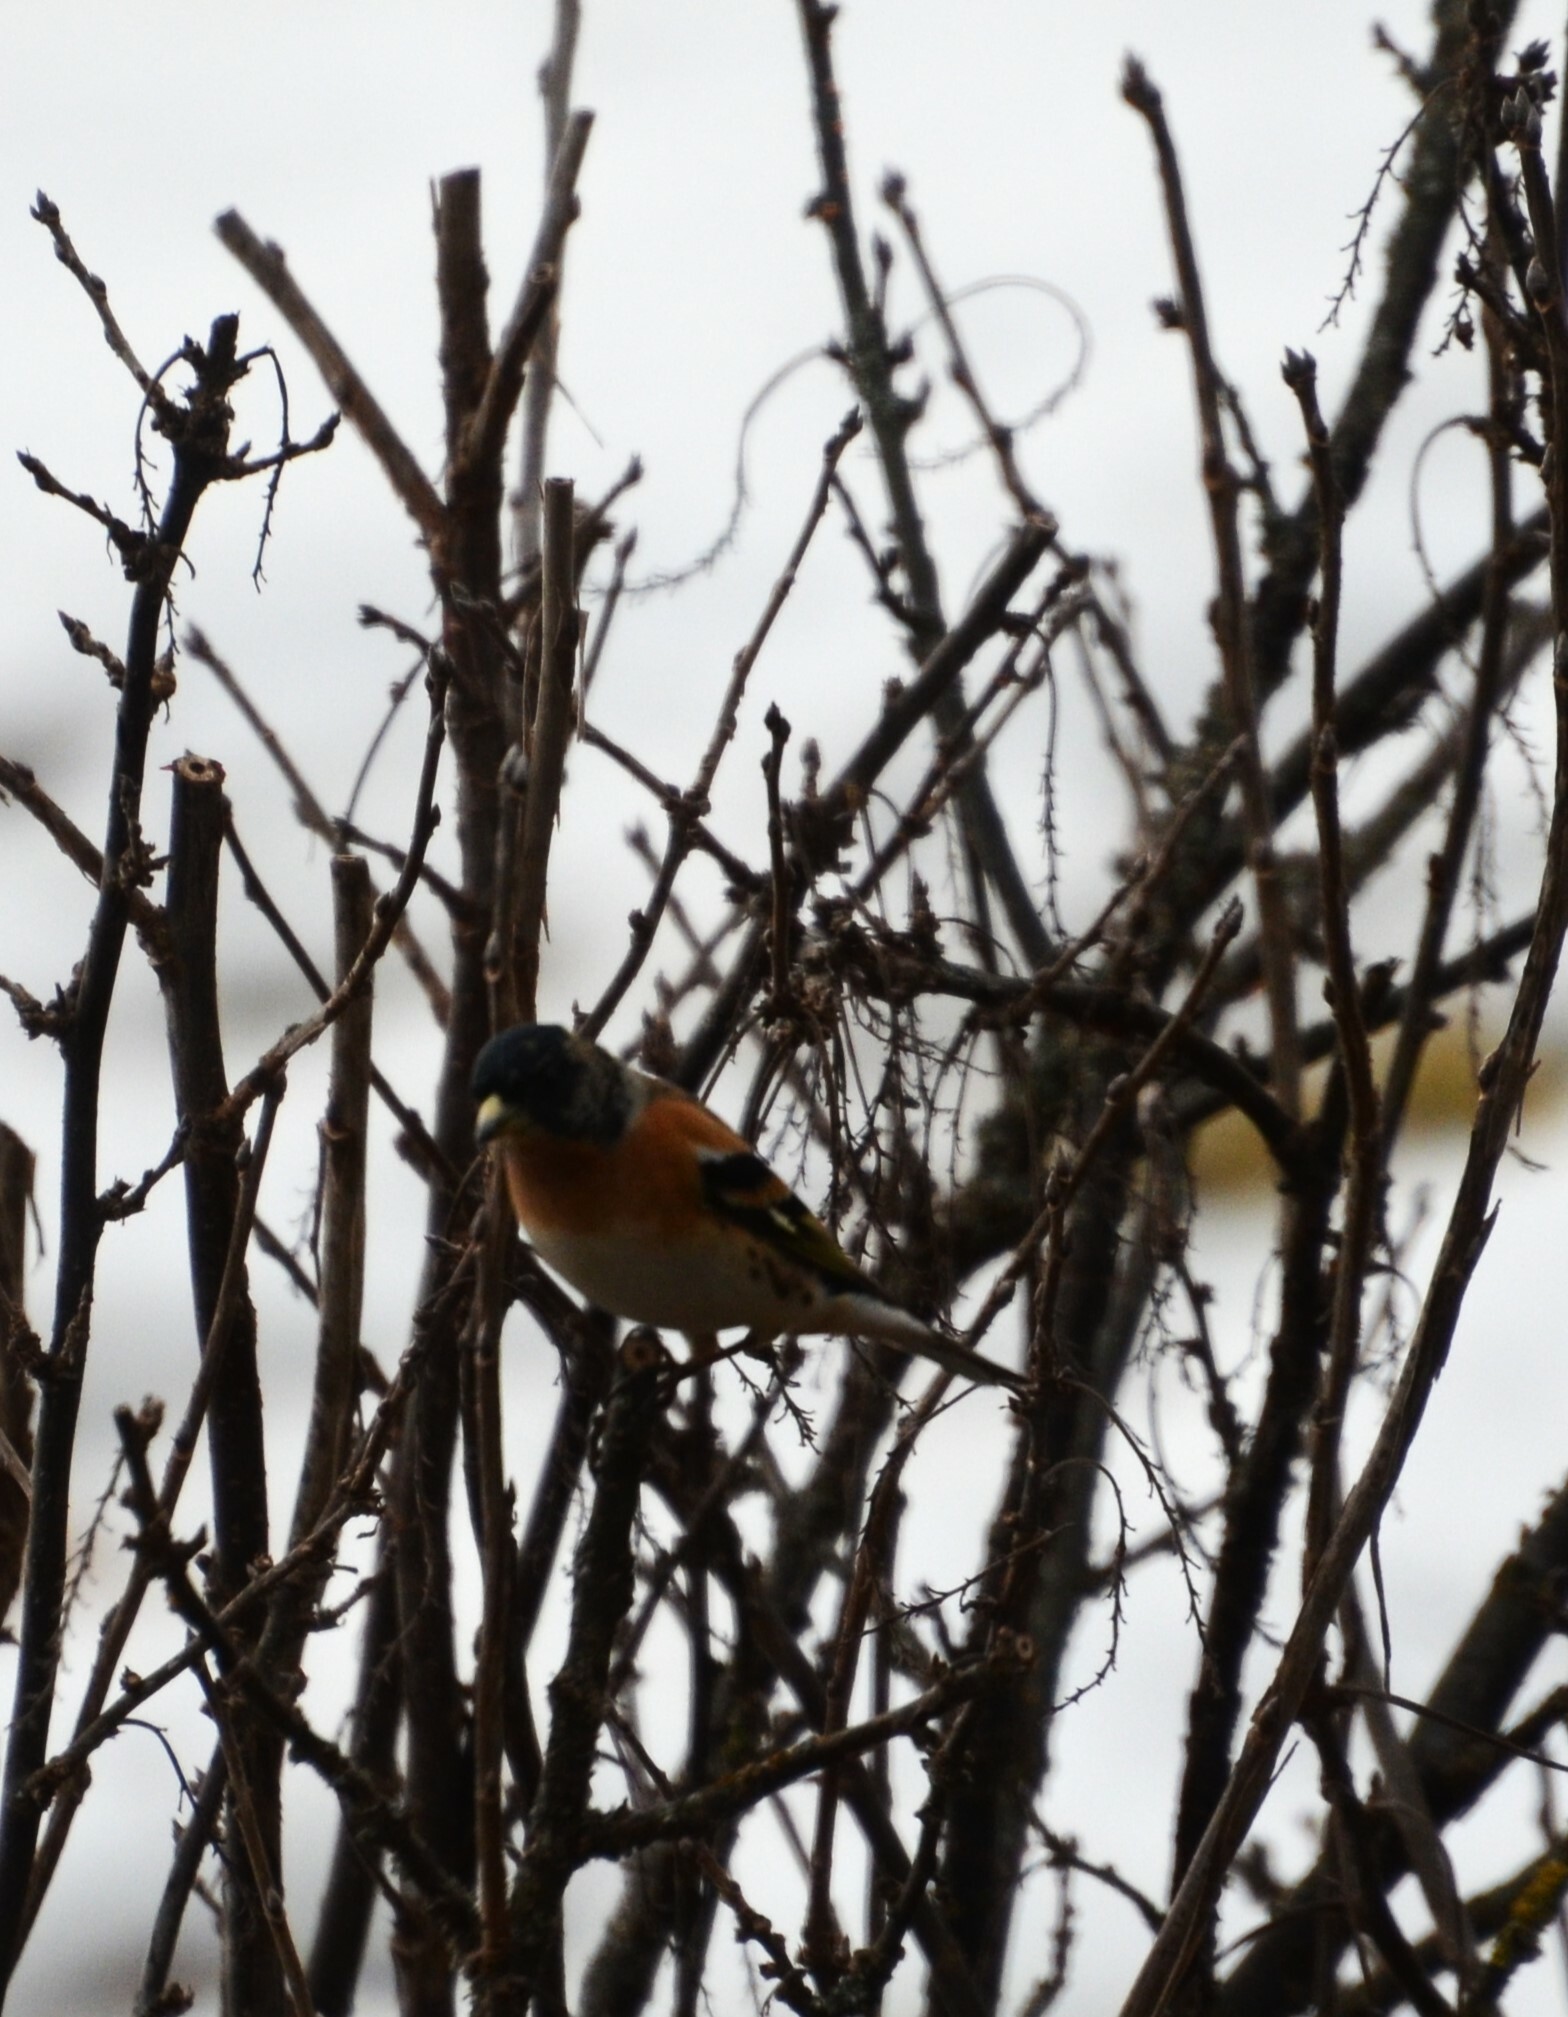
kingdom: Animalia
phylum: Chordata
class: Aves
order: Passeriformes
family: Fringillidae
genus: Fringilla
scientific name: Fringilla montifringilla
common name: Brambling
